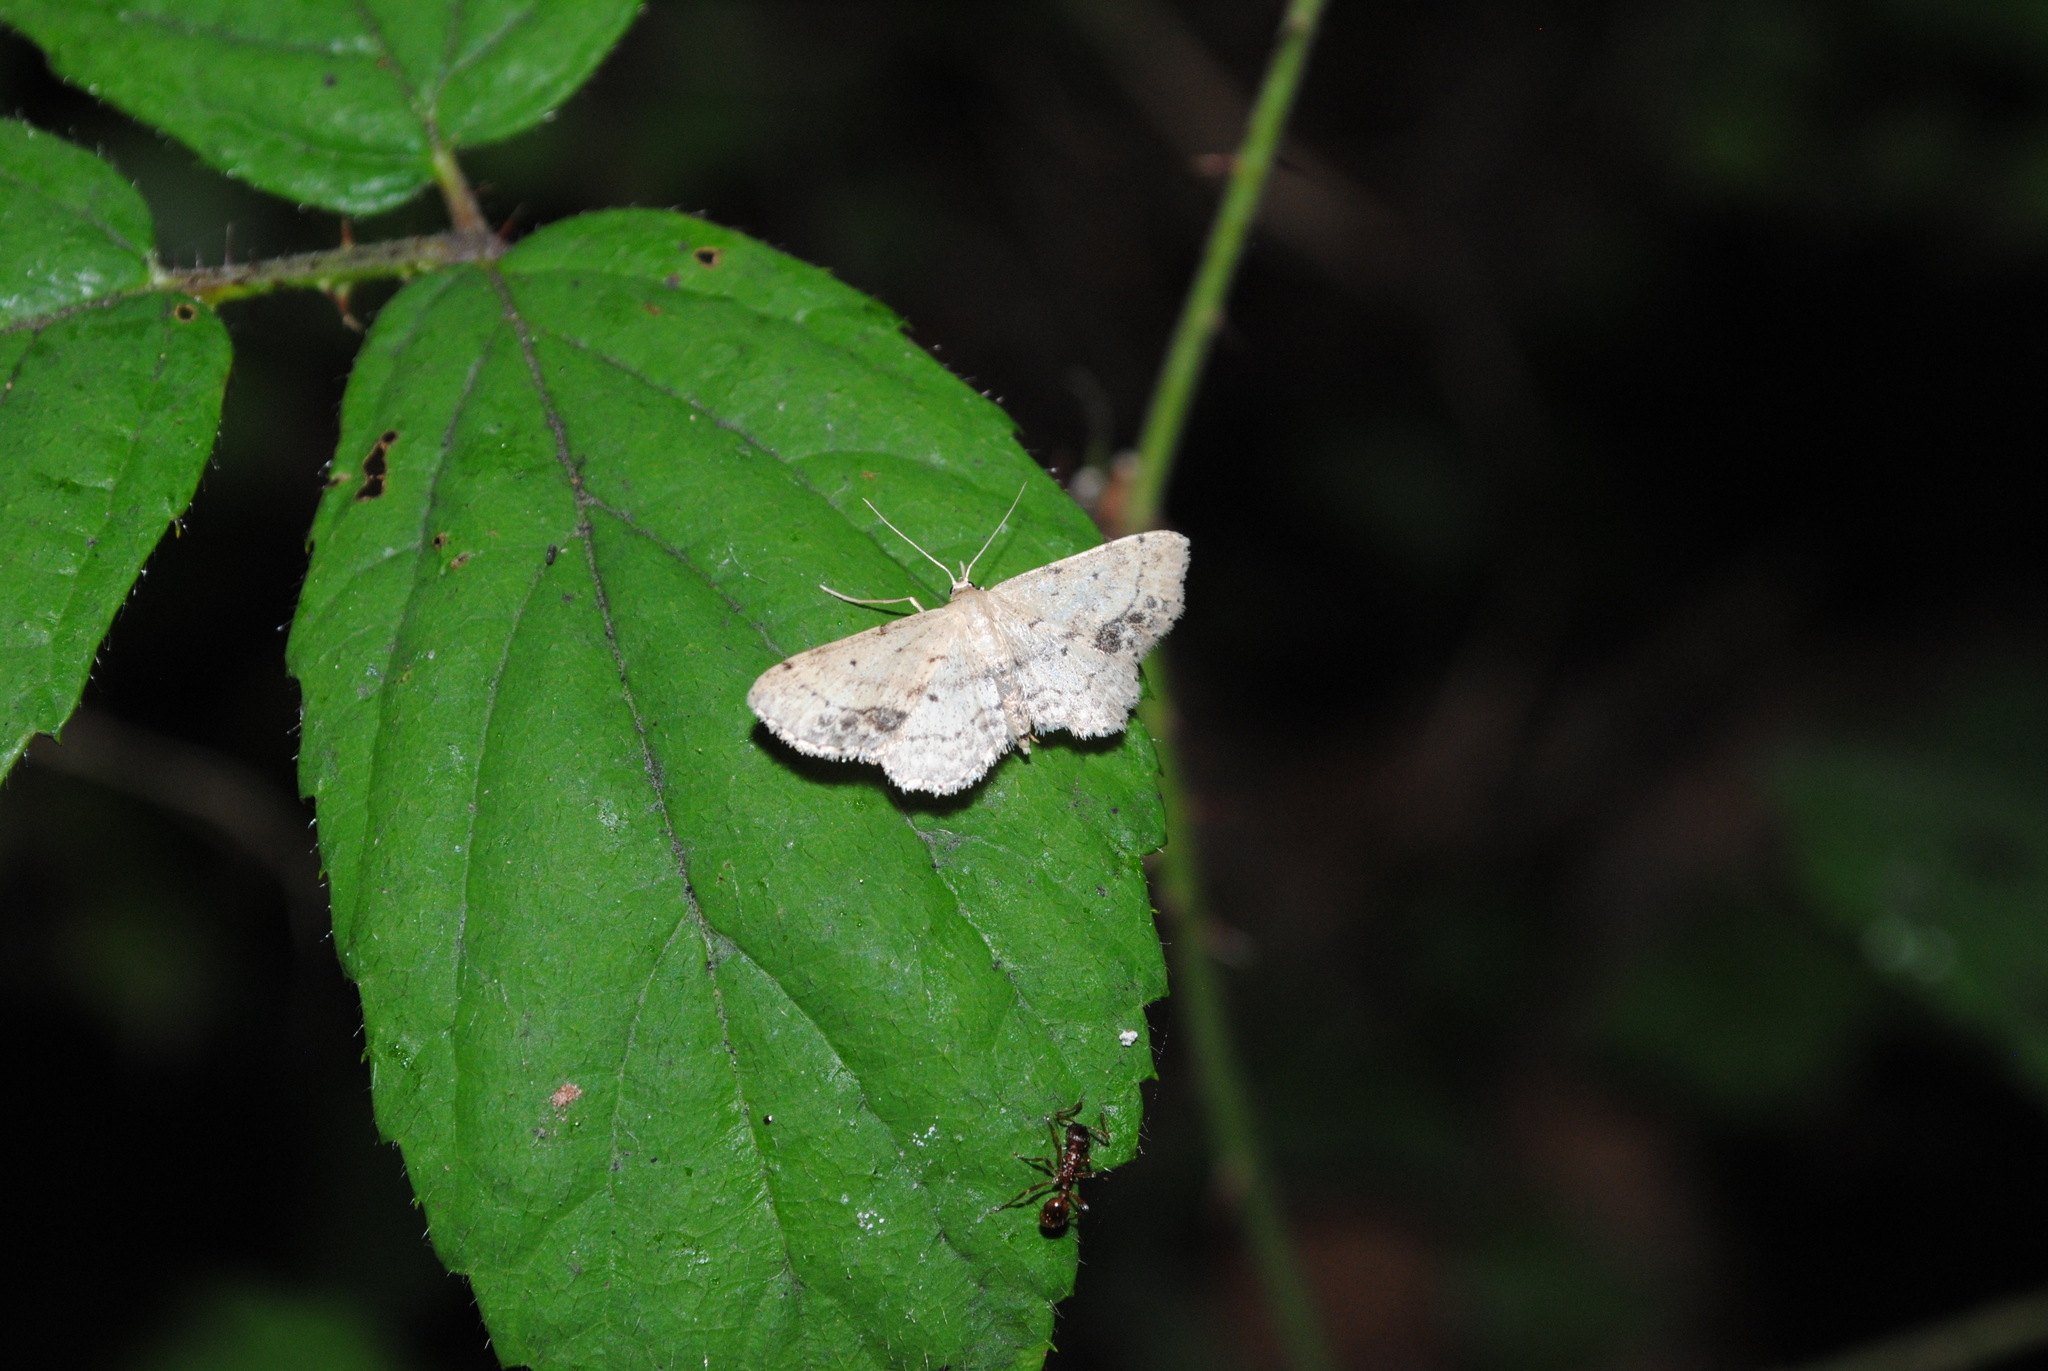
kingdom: Animalia
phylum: Arthropoda
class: Insecta
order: Lepidoptera
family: Geometridae
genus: Idaea
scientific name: Idaea dimidiata
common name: Single-dotted wave
